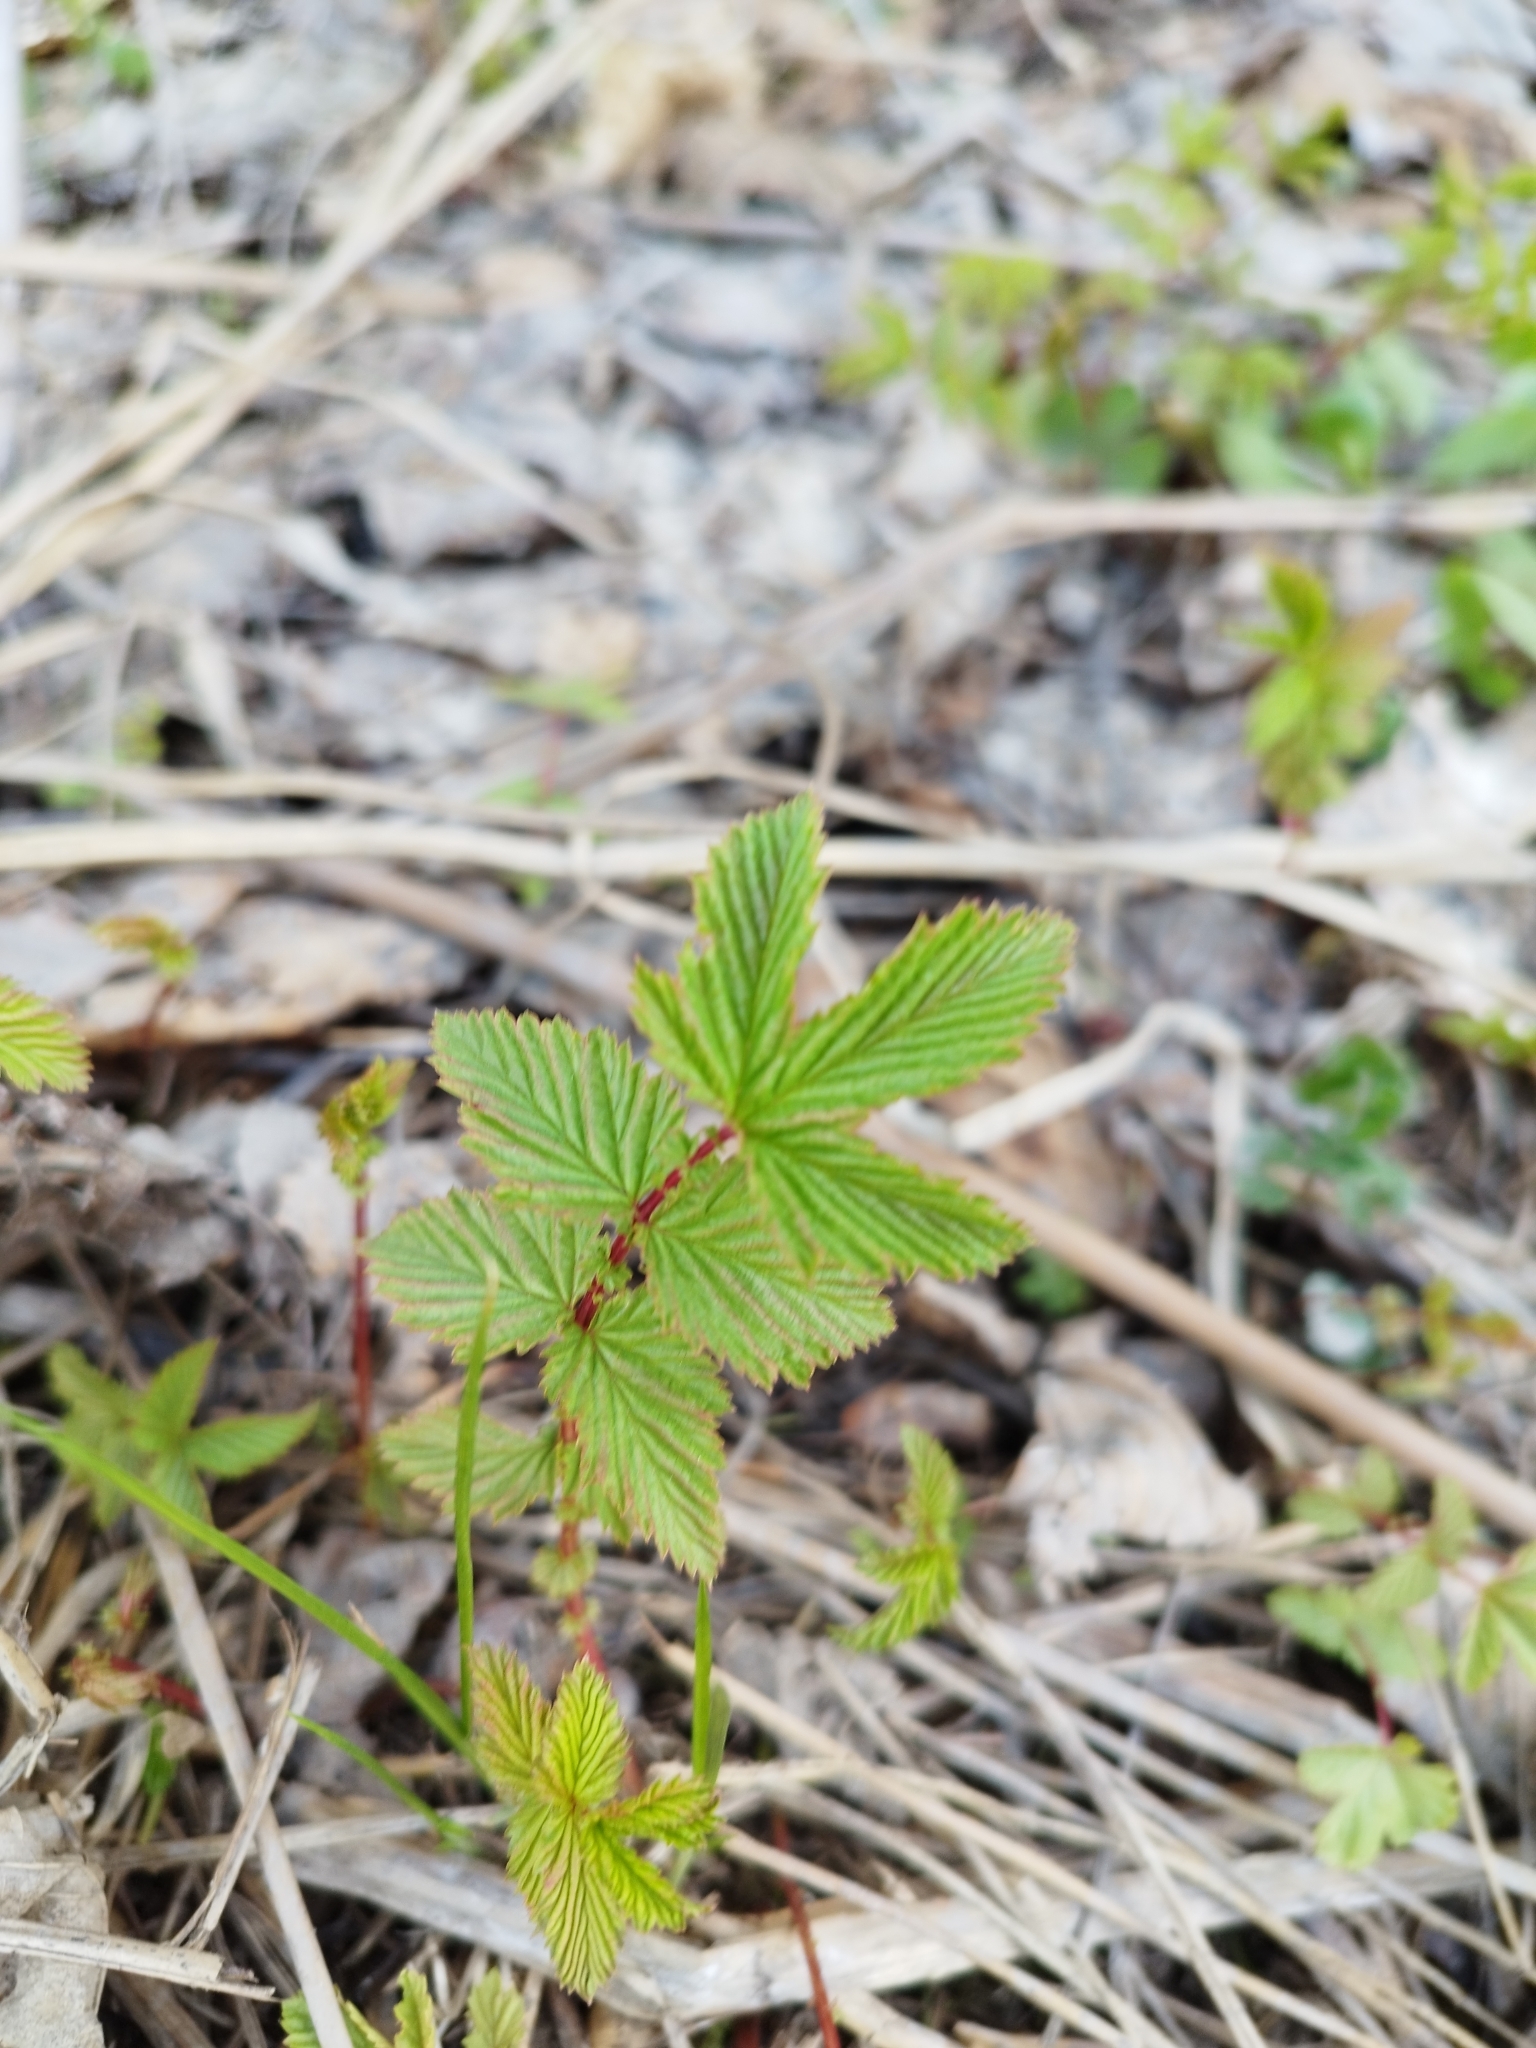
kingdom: Plantae
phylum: Tracheophyta
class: Magnoliopsida
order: Rosales
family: Rosaceae
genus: Filipendula
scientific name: Filipendula ulmaria
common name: Meadowsweet
